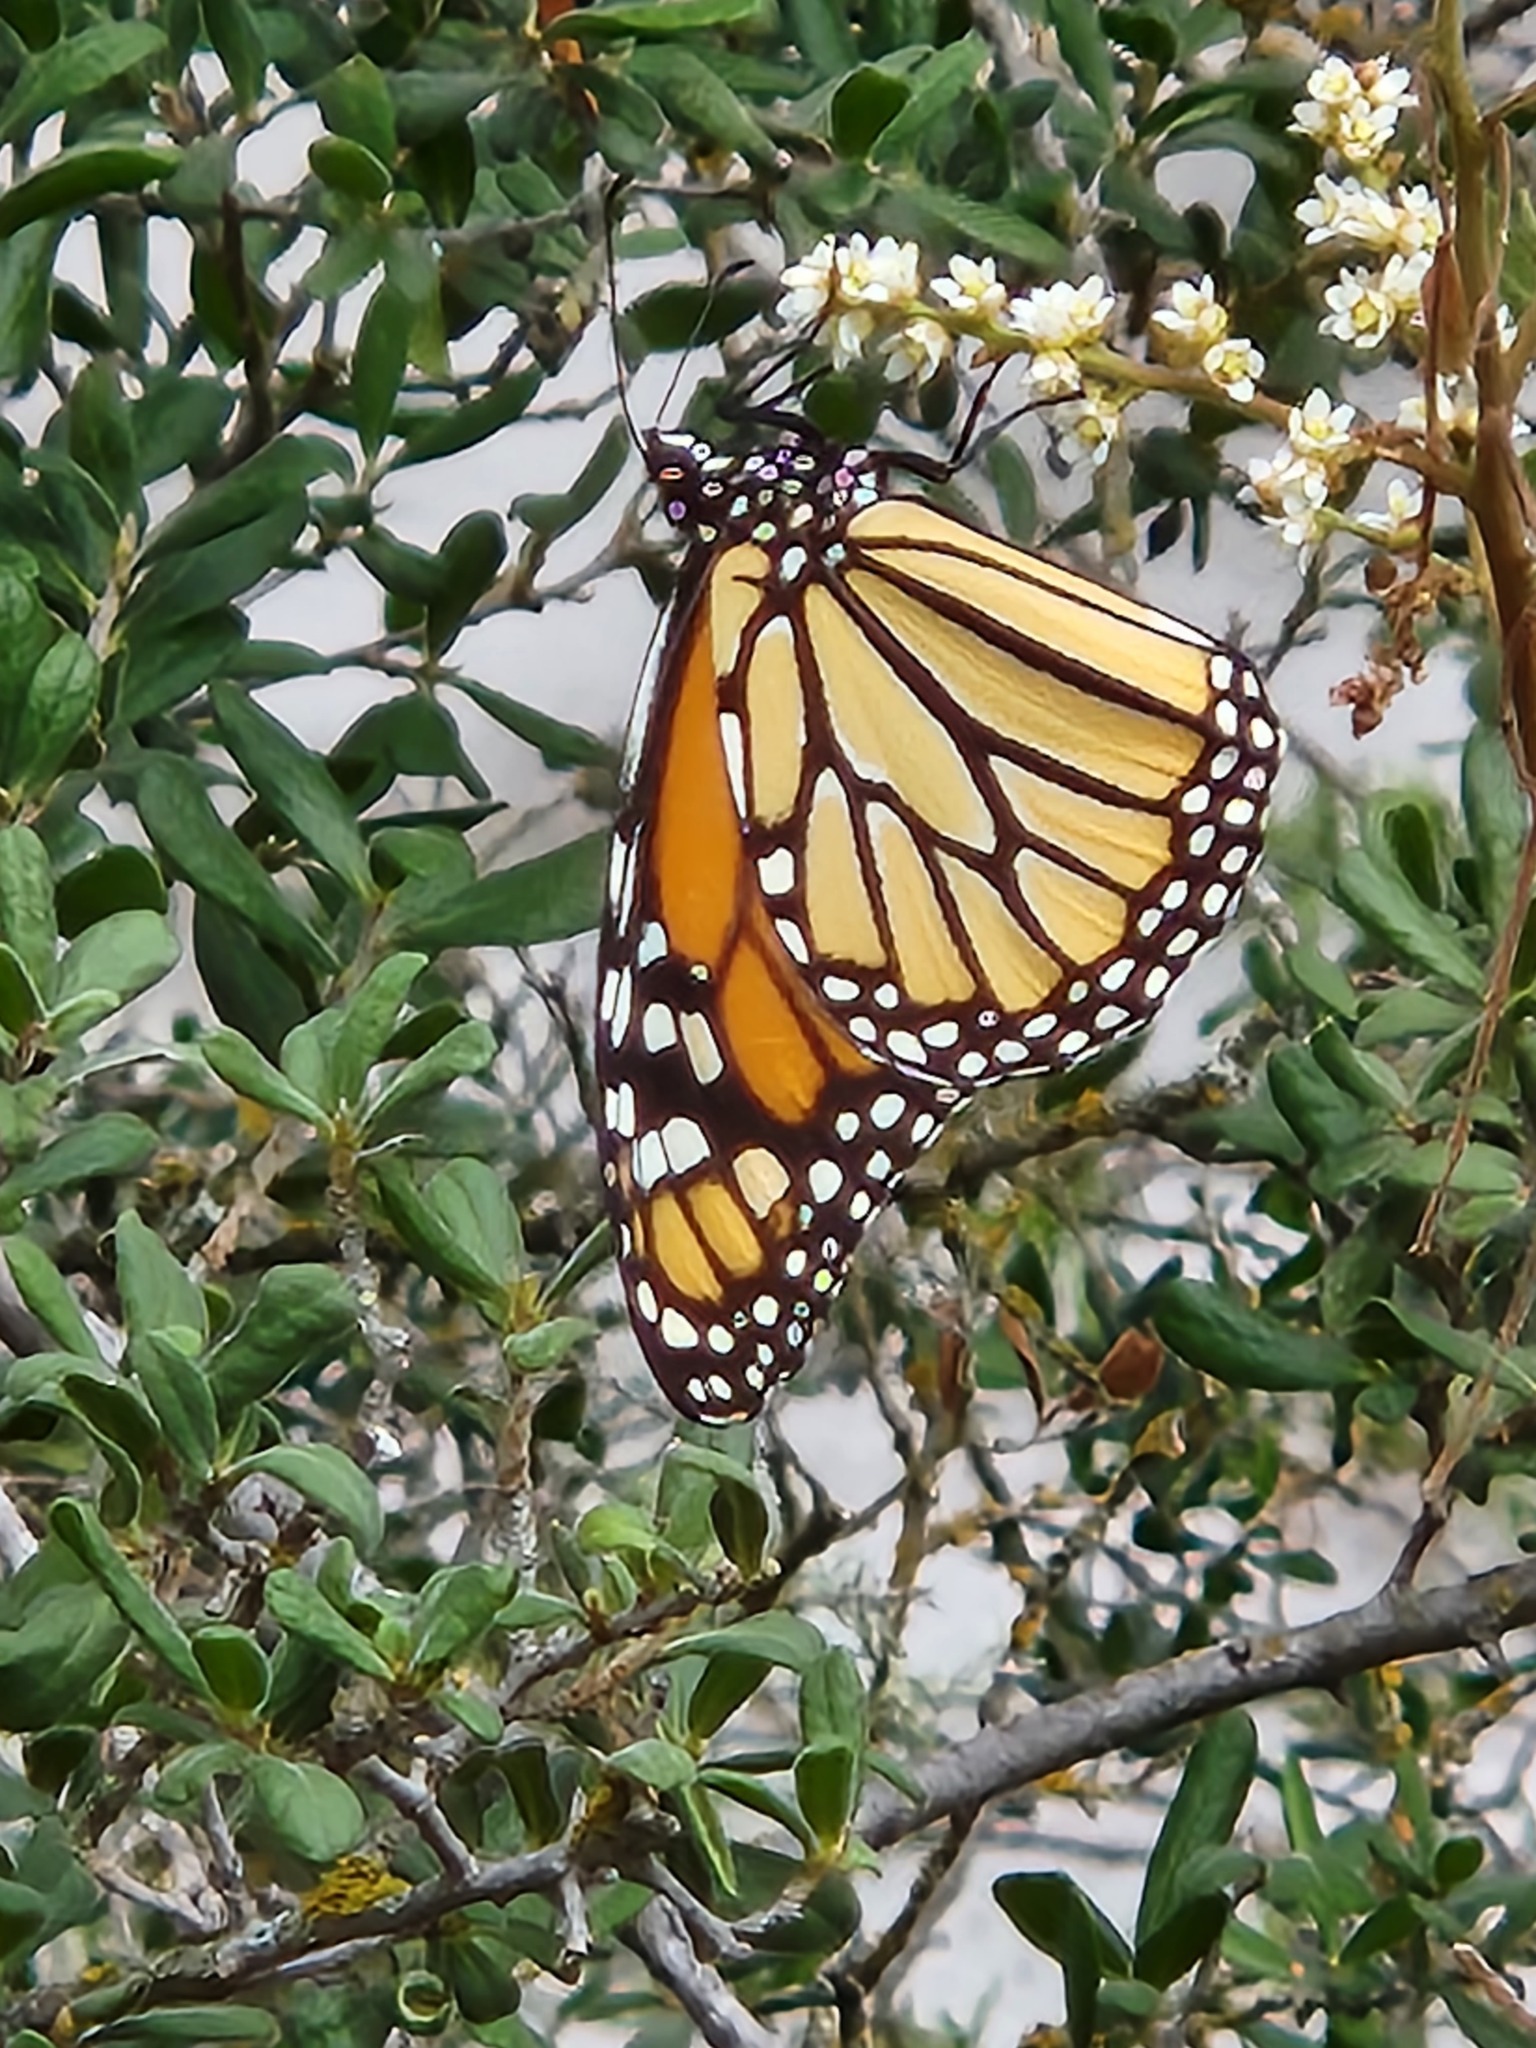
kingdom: Animalia
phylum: Arthropoda
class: Insecta
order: Lepidoptera
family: Nymphalidae
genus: Danaus
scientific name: Danaus plexippus
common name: Monarch
